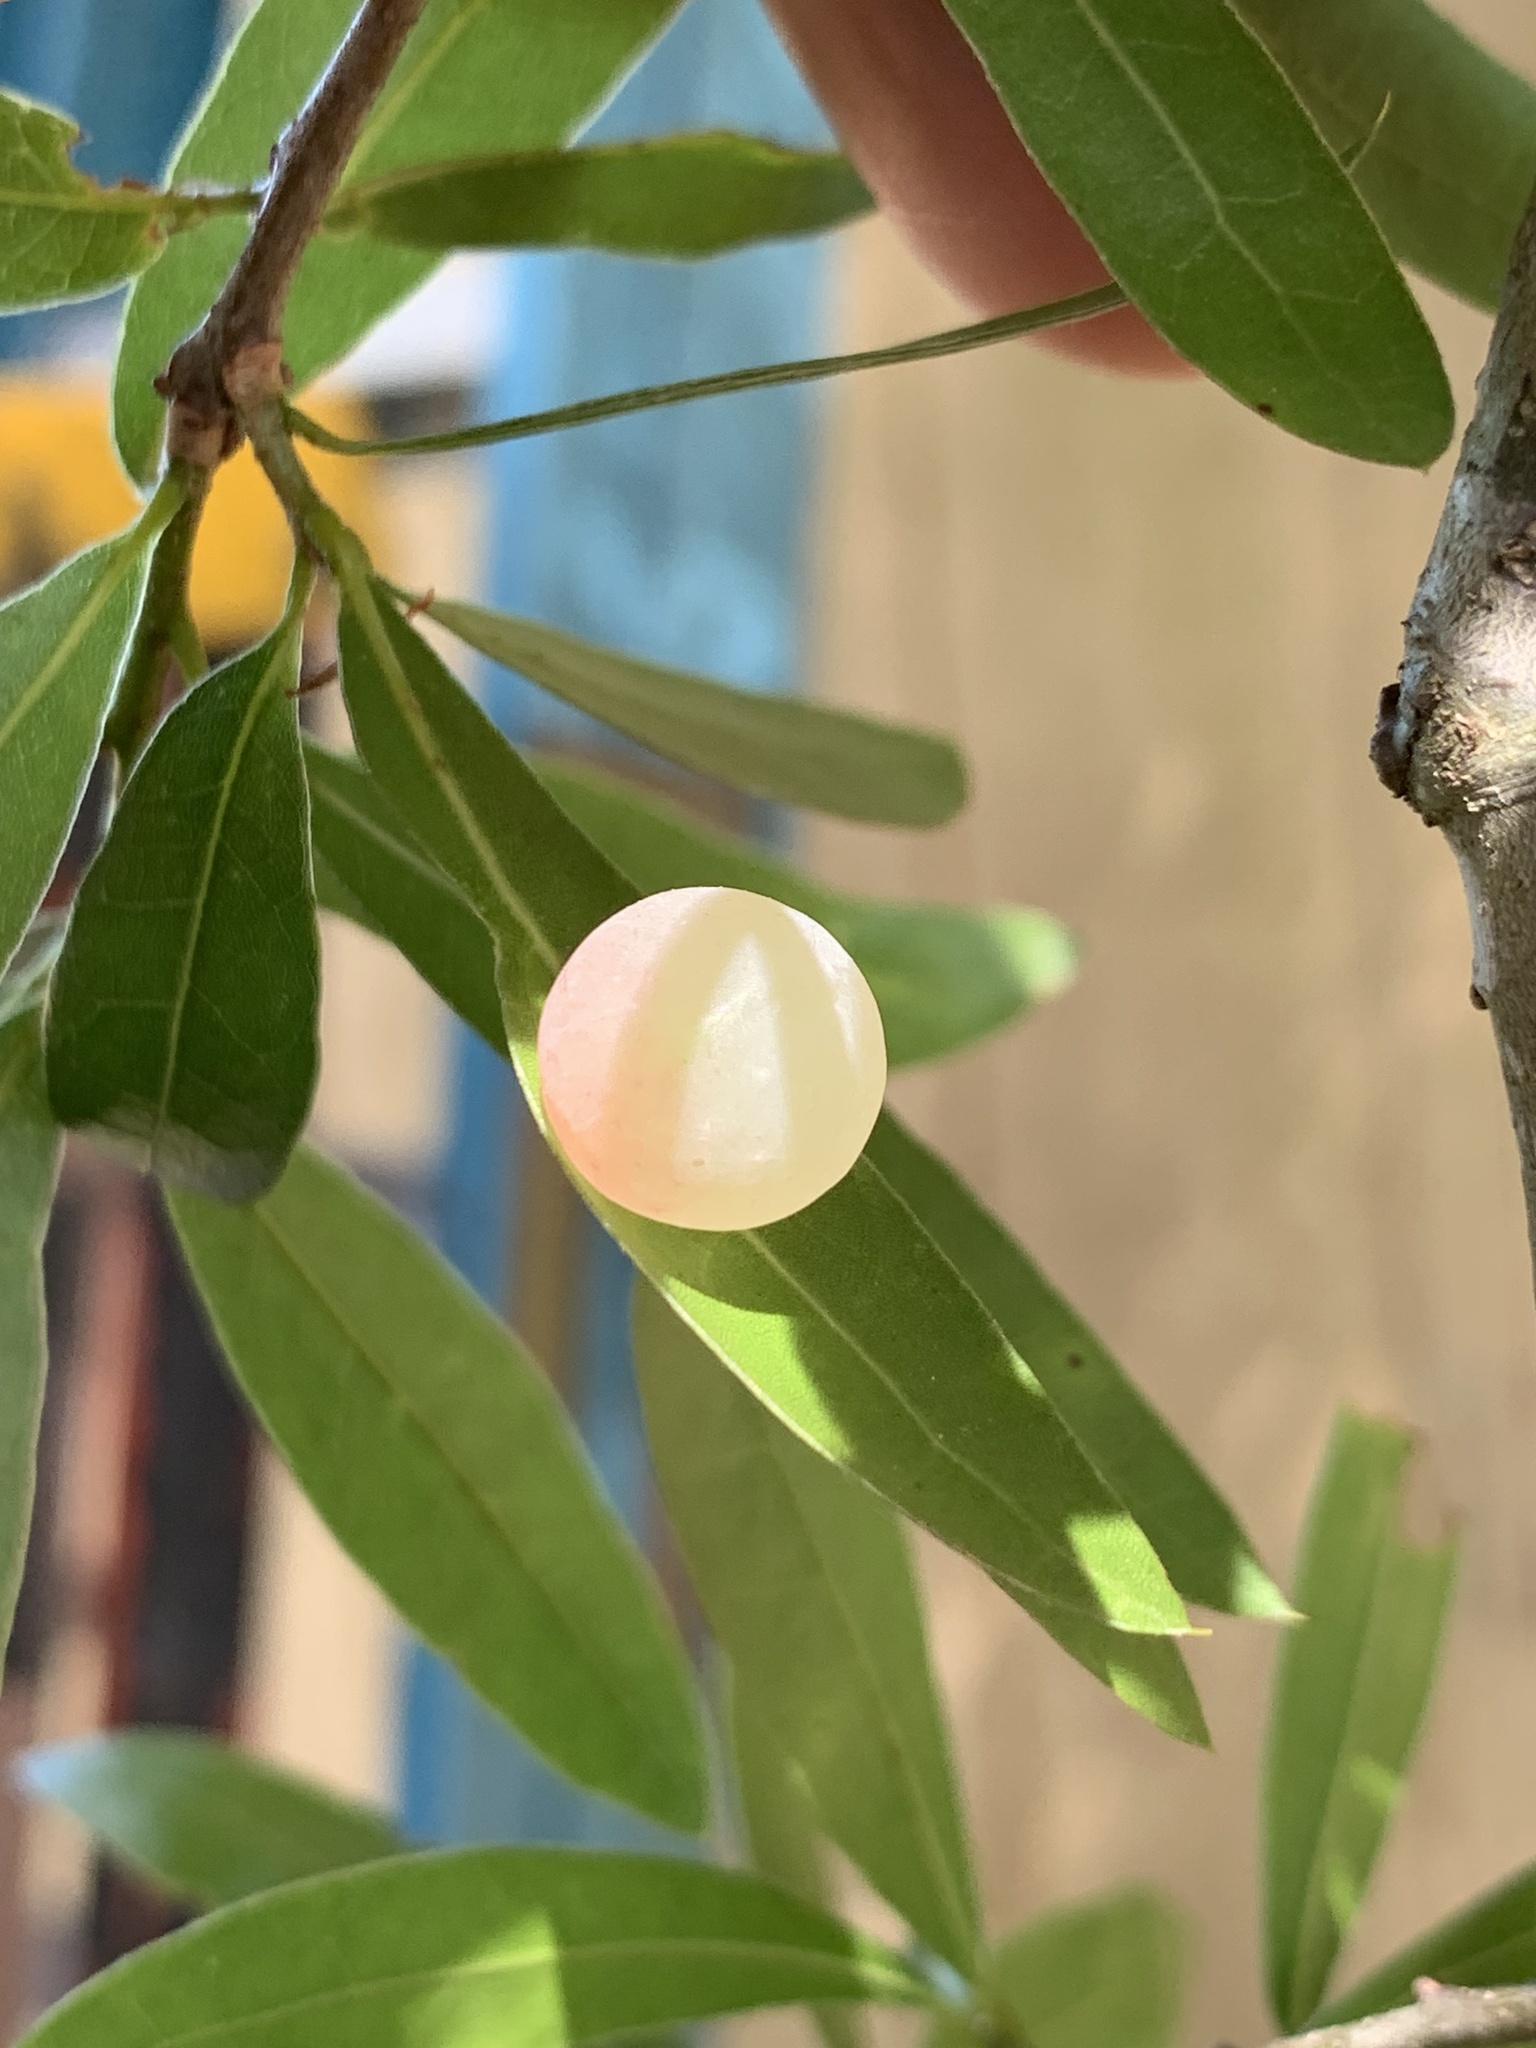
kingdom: Animalia
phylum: Arthropoda
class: Insecta
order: Hymenoptera
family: Cynipidae
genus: Amphibolips
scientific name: Amphibolips
